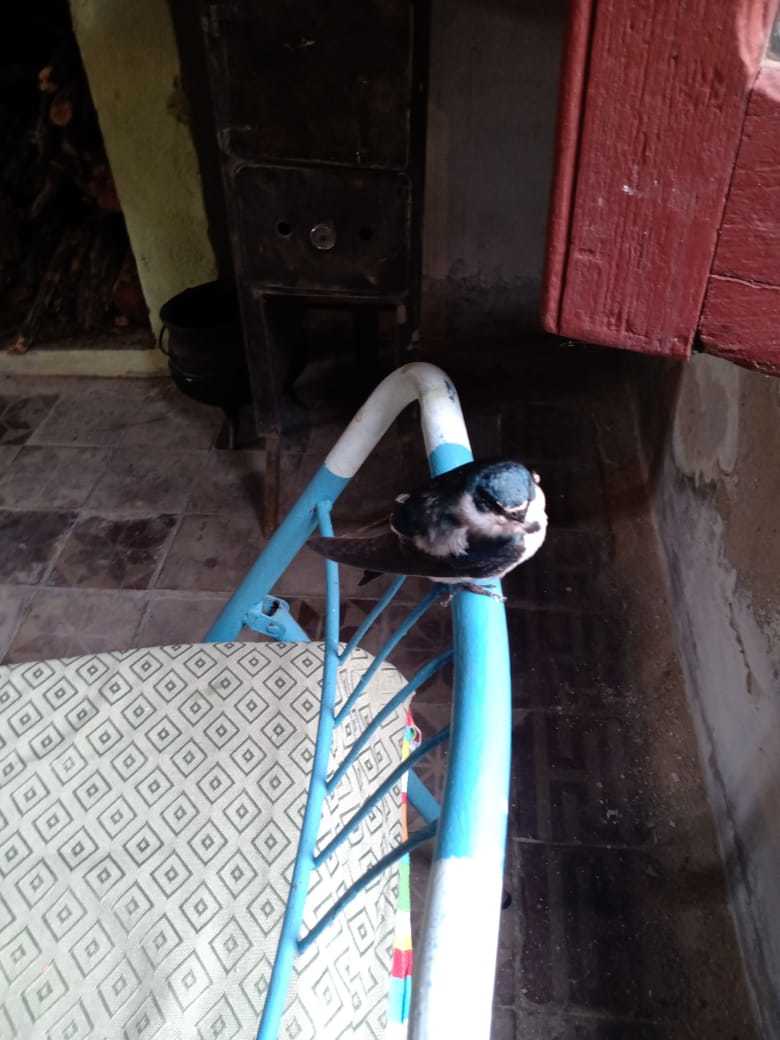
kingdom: Animalia
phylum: Chordata
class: Aves
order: Passeriformes
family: Hirundinidae
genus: Tachycineta
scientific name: Tachycineta leucorrhoa
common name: White-rumped swallow
